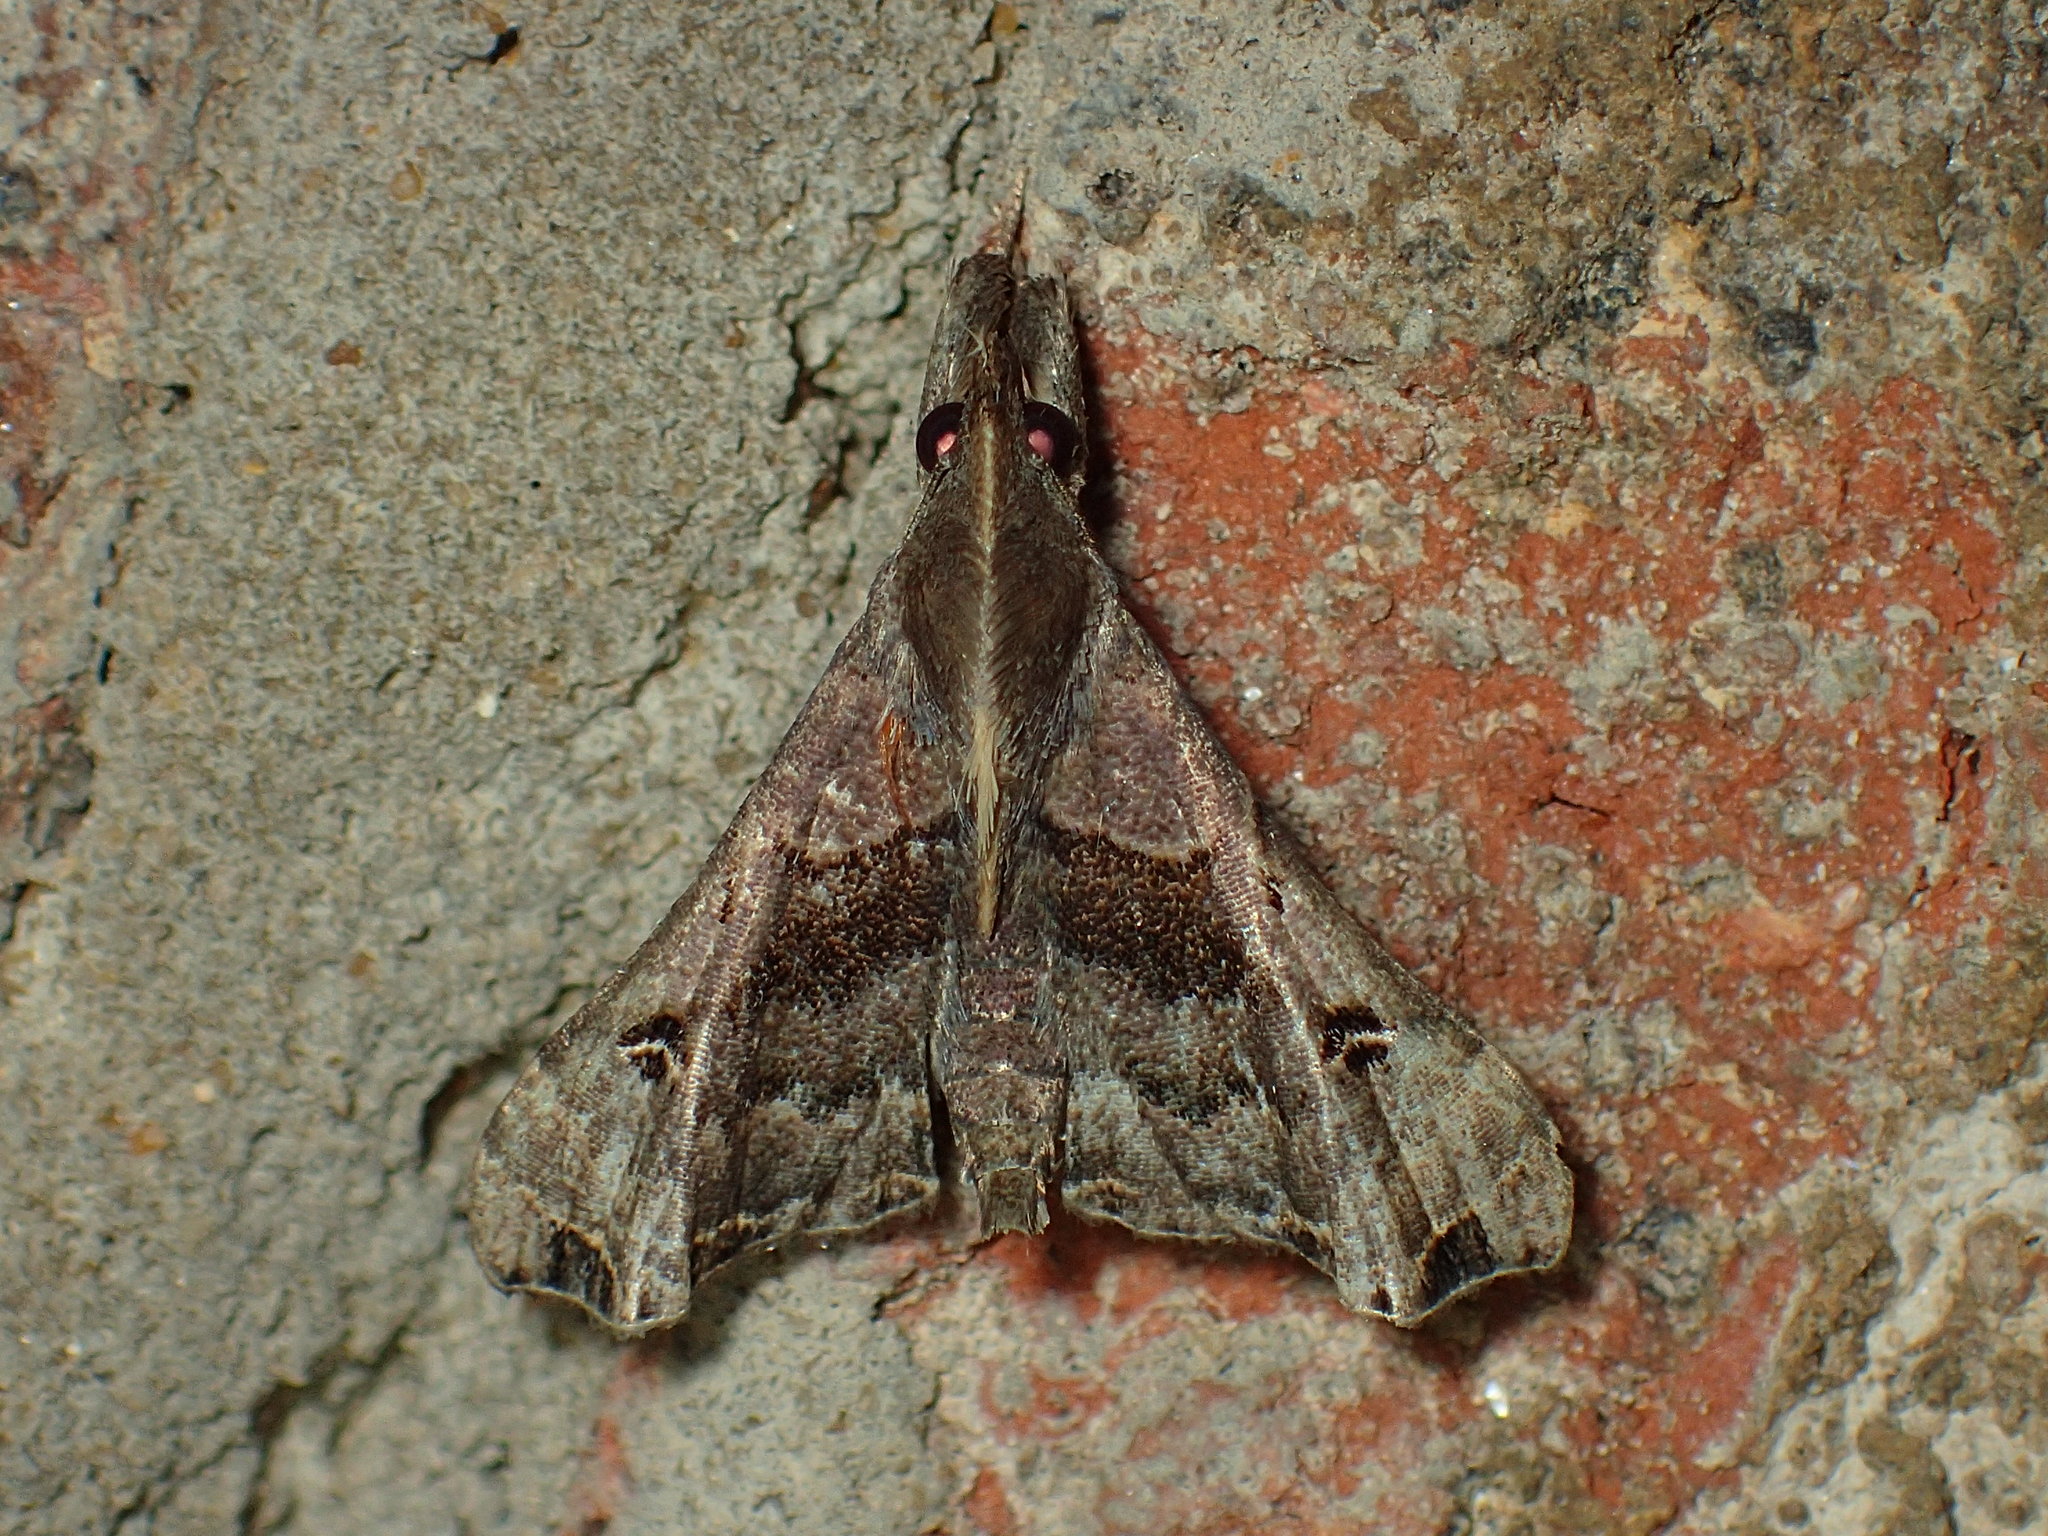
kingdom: Animalia
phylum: Arthropoda
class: Insecta
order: Lepidoptera
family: Erebidae
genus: Palthis
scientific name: Palthis asopialis
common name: Faint-spotted palthis moth
